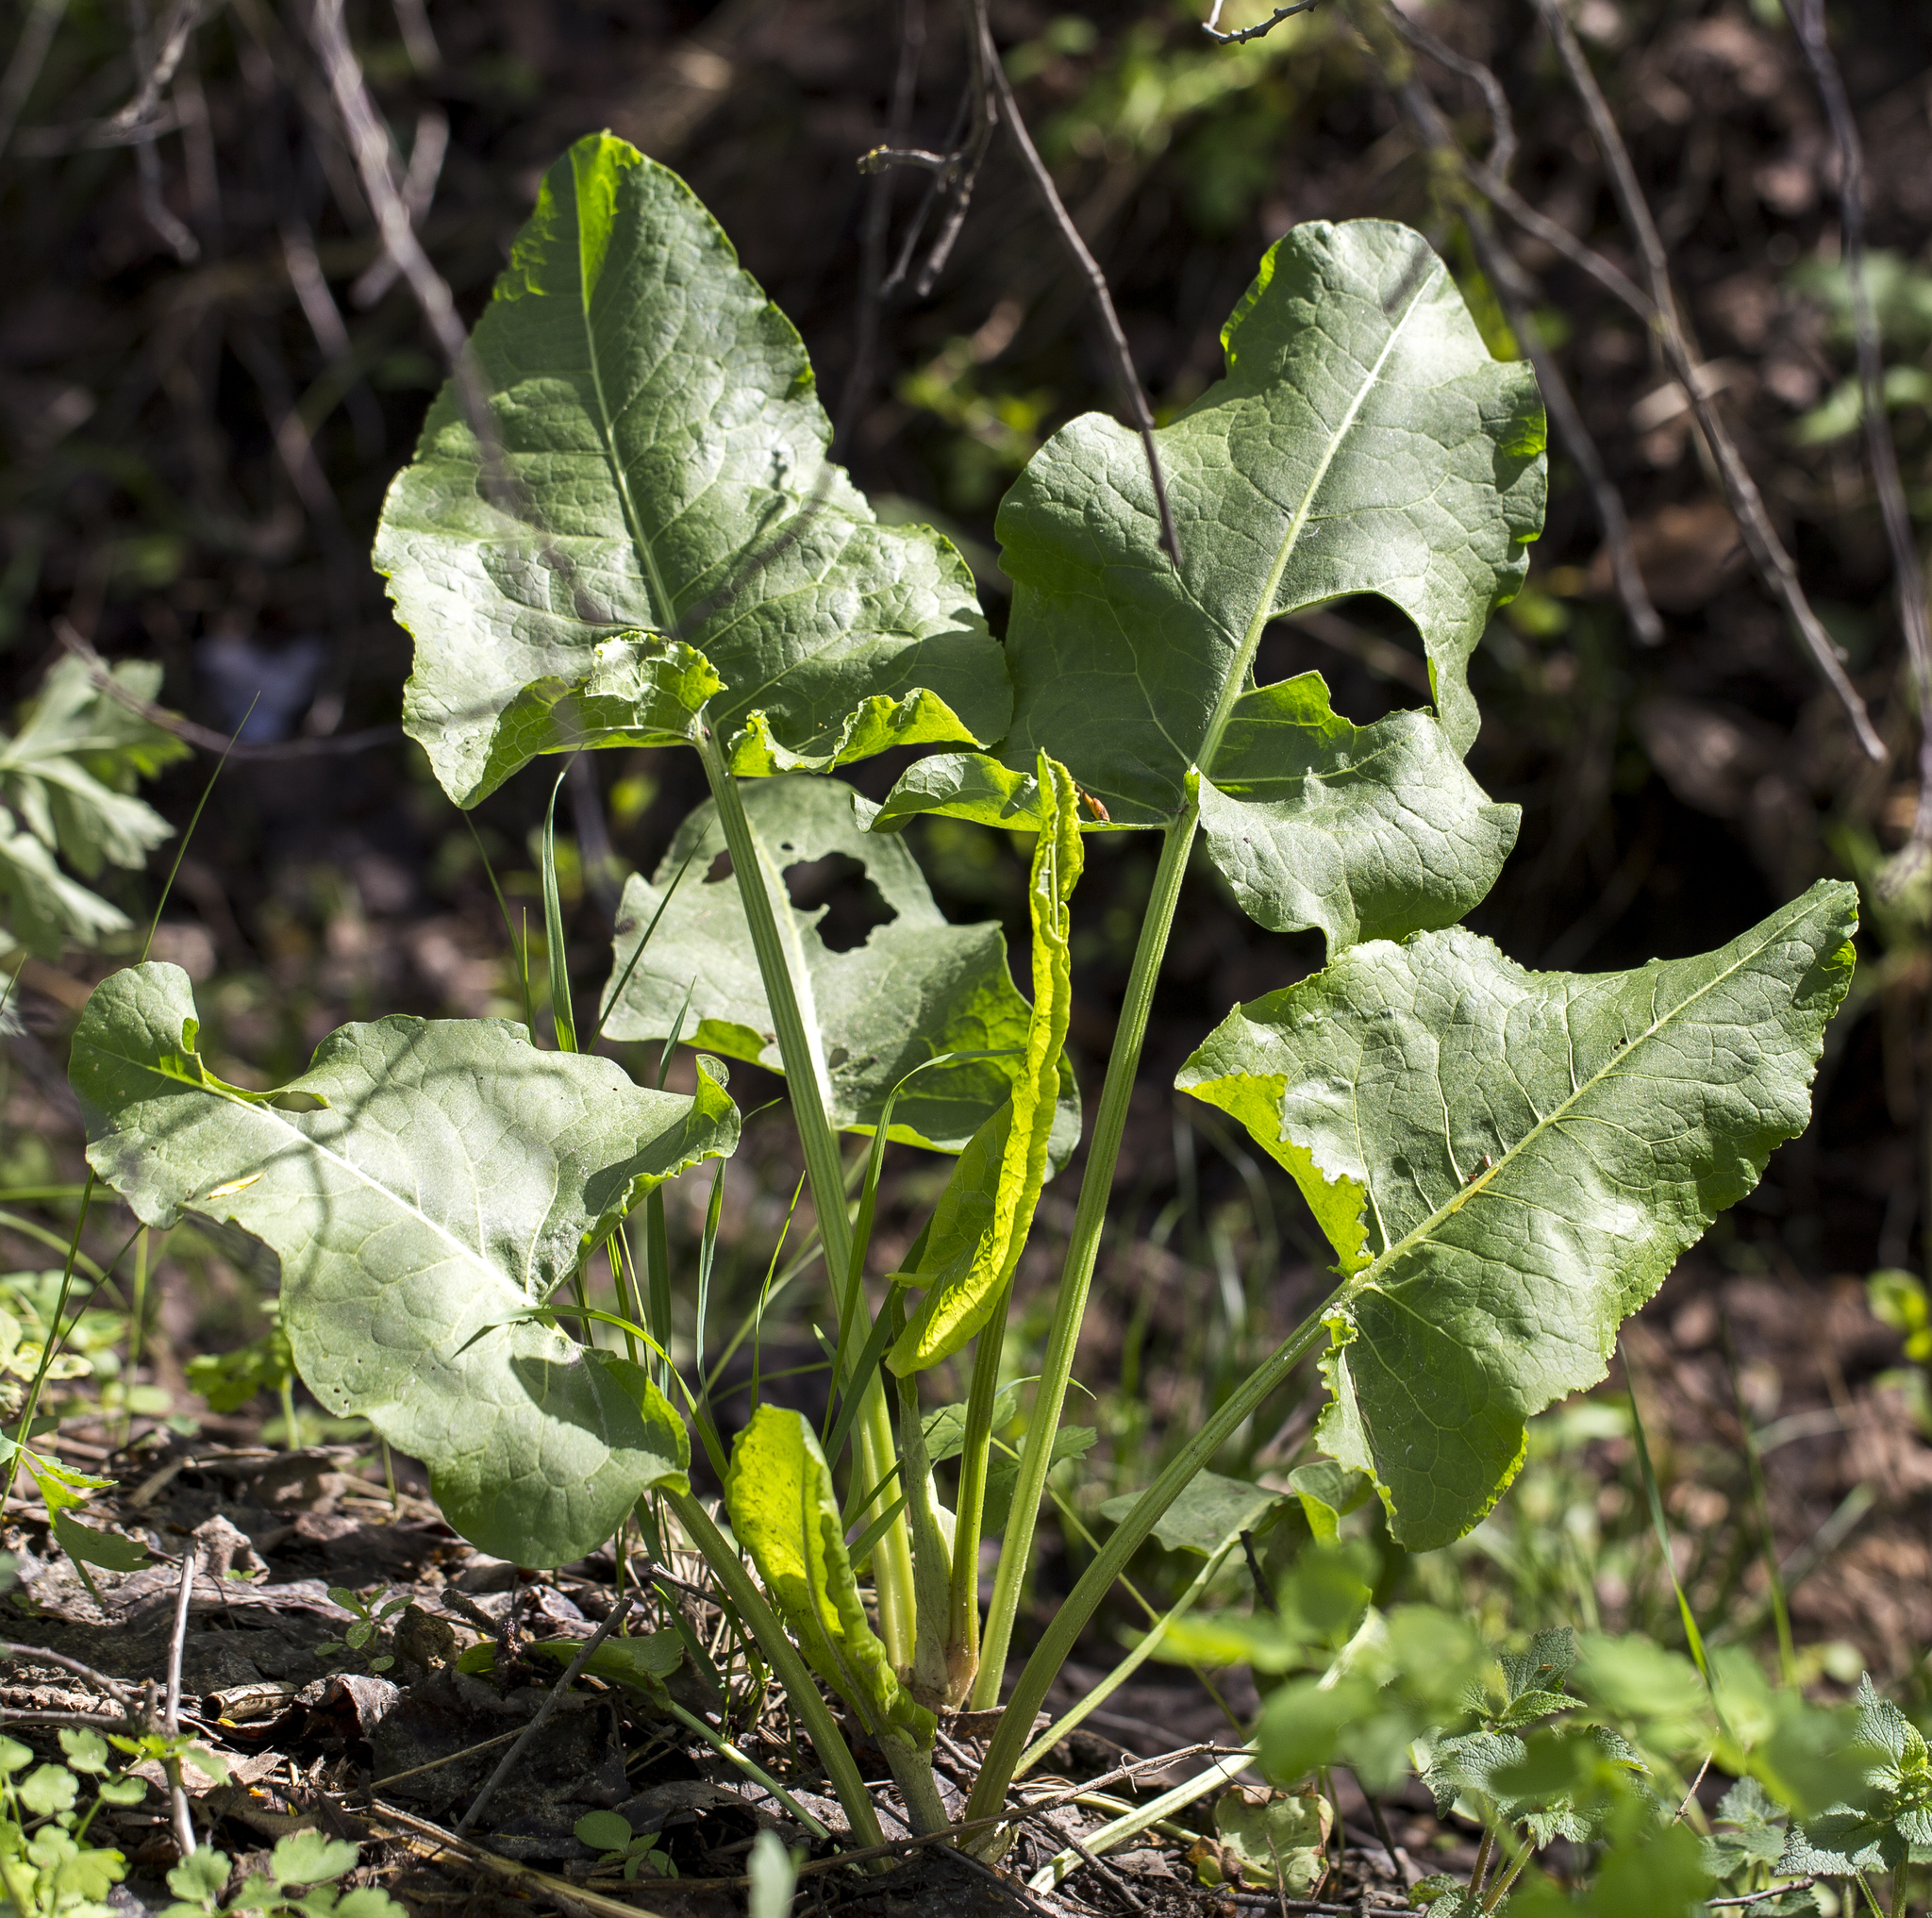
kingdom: Plantae
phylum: Tracheophyta
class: Magnoliopsida
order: Caryophyllales
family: Polygonaceae
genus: Rumex
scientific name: Rumex confertus
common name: Russian dock
